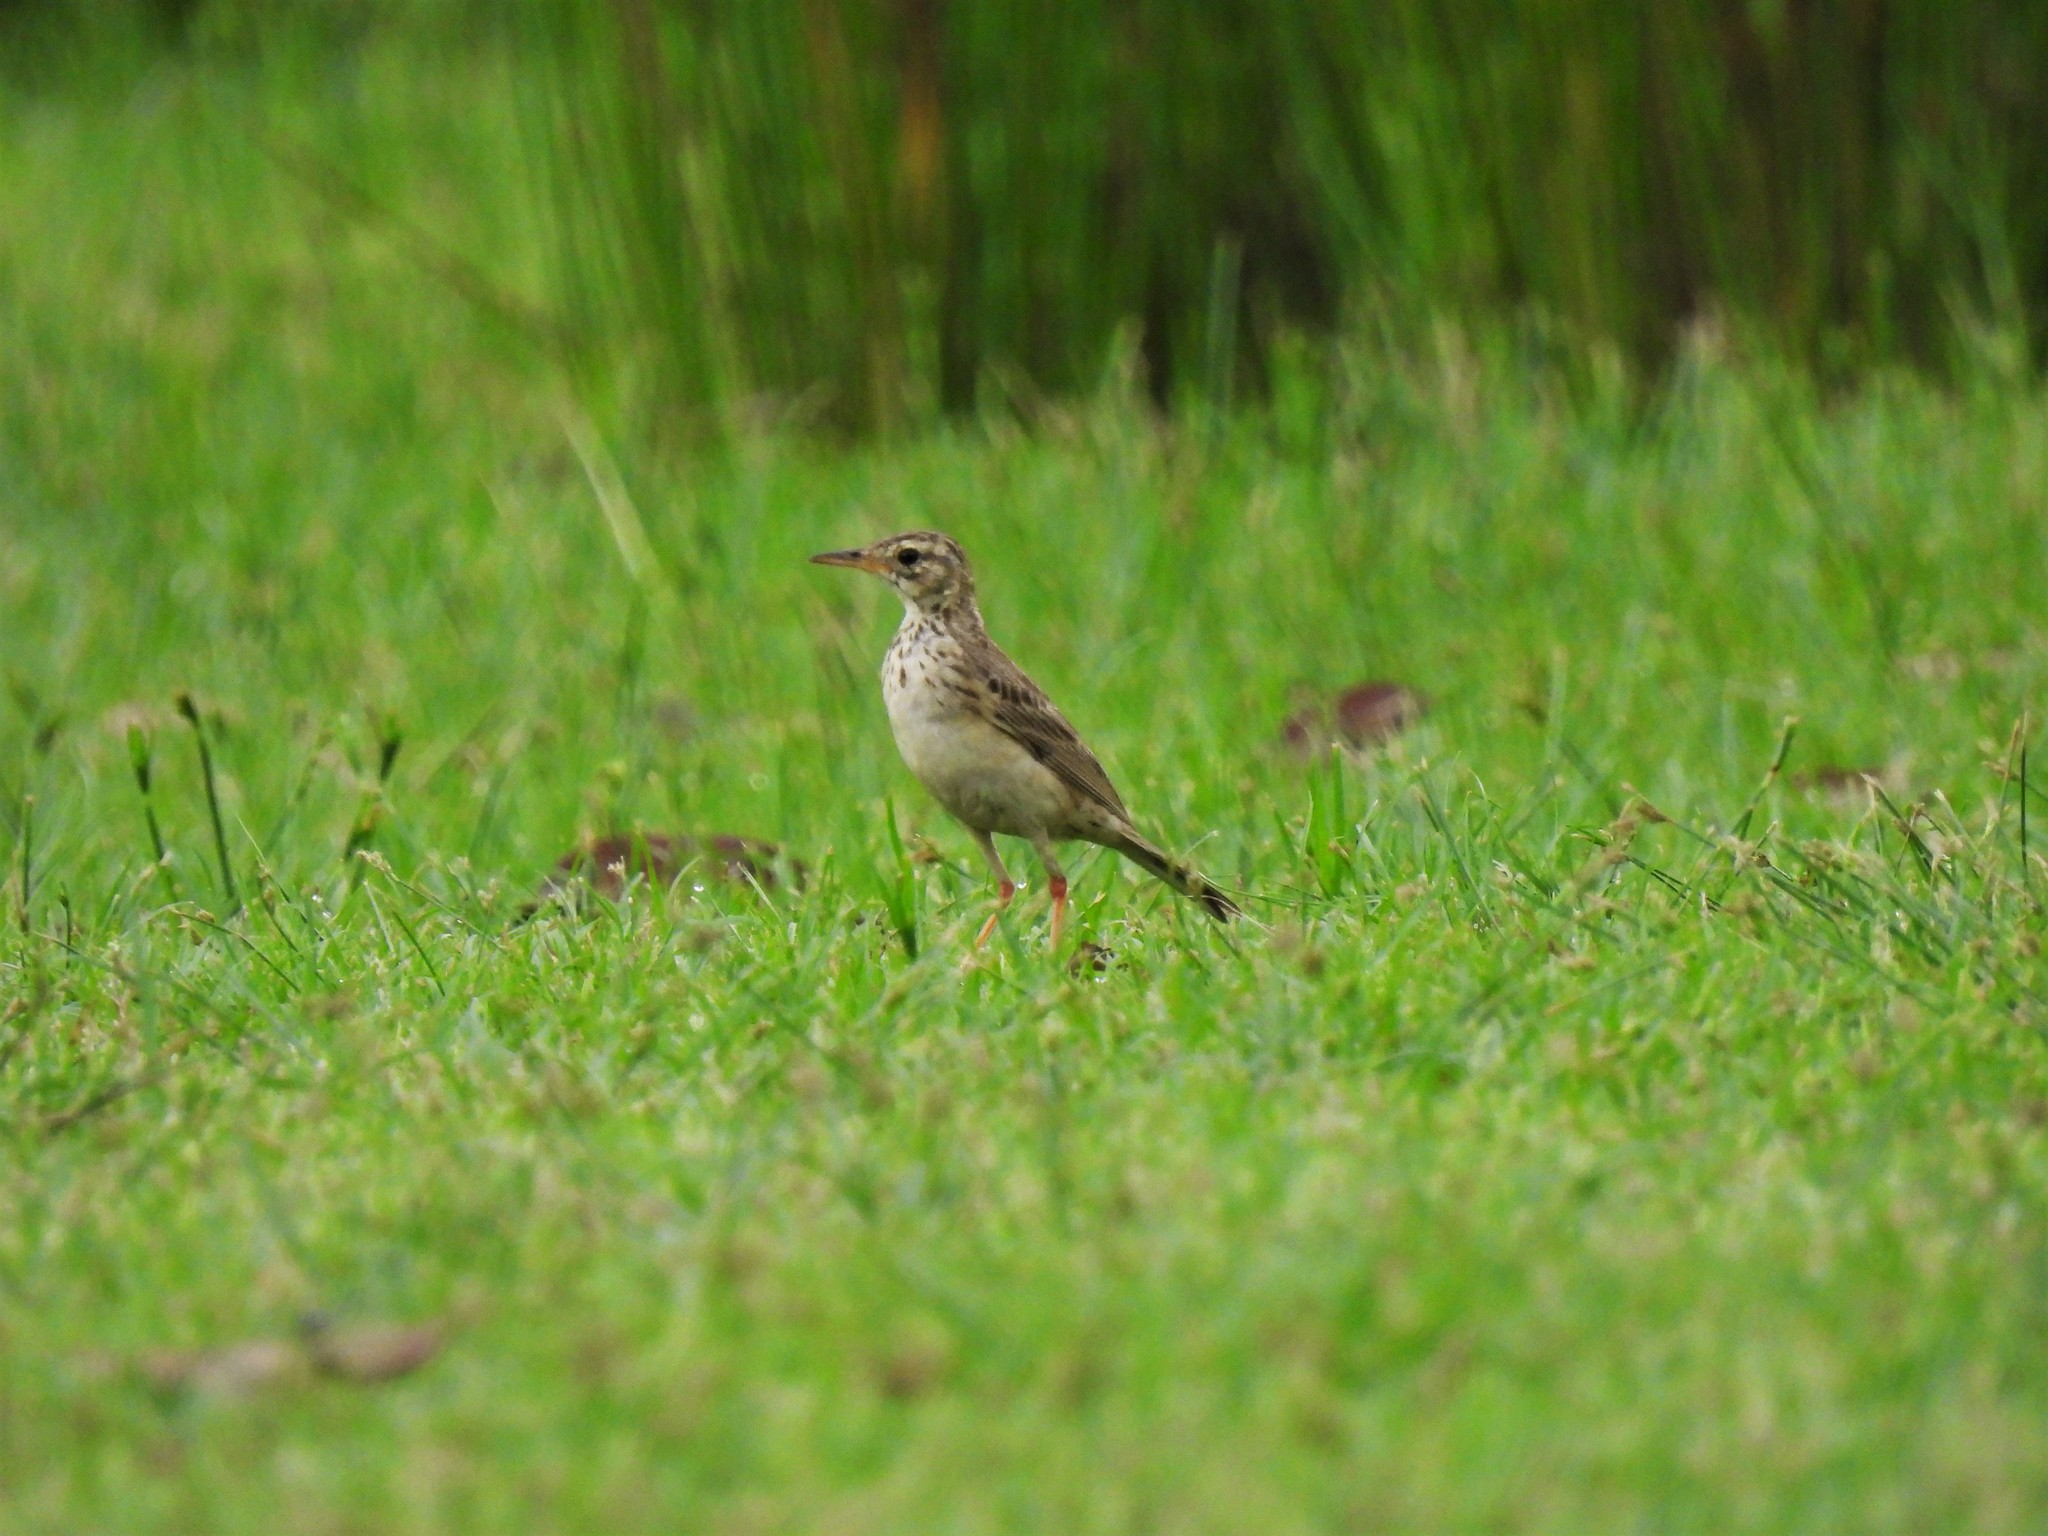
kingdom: Animalia
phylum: Chordata
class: Aves
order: Passeriformes
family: Motacillidae
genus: Anthus
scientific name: Anthus rufulus
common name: Paddyfield pipit
